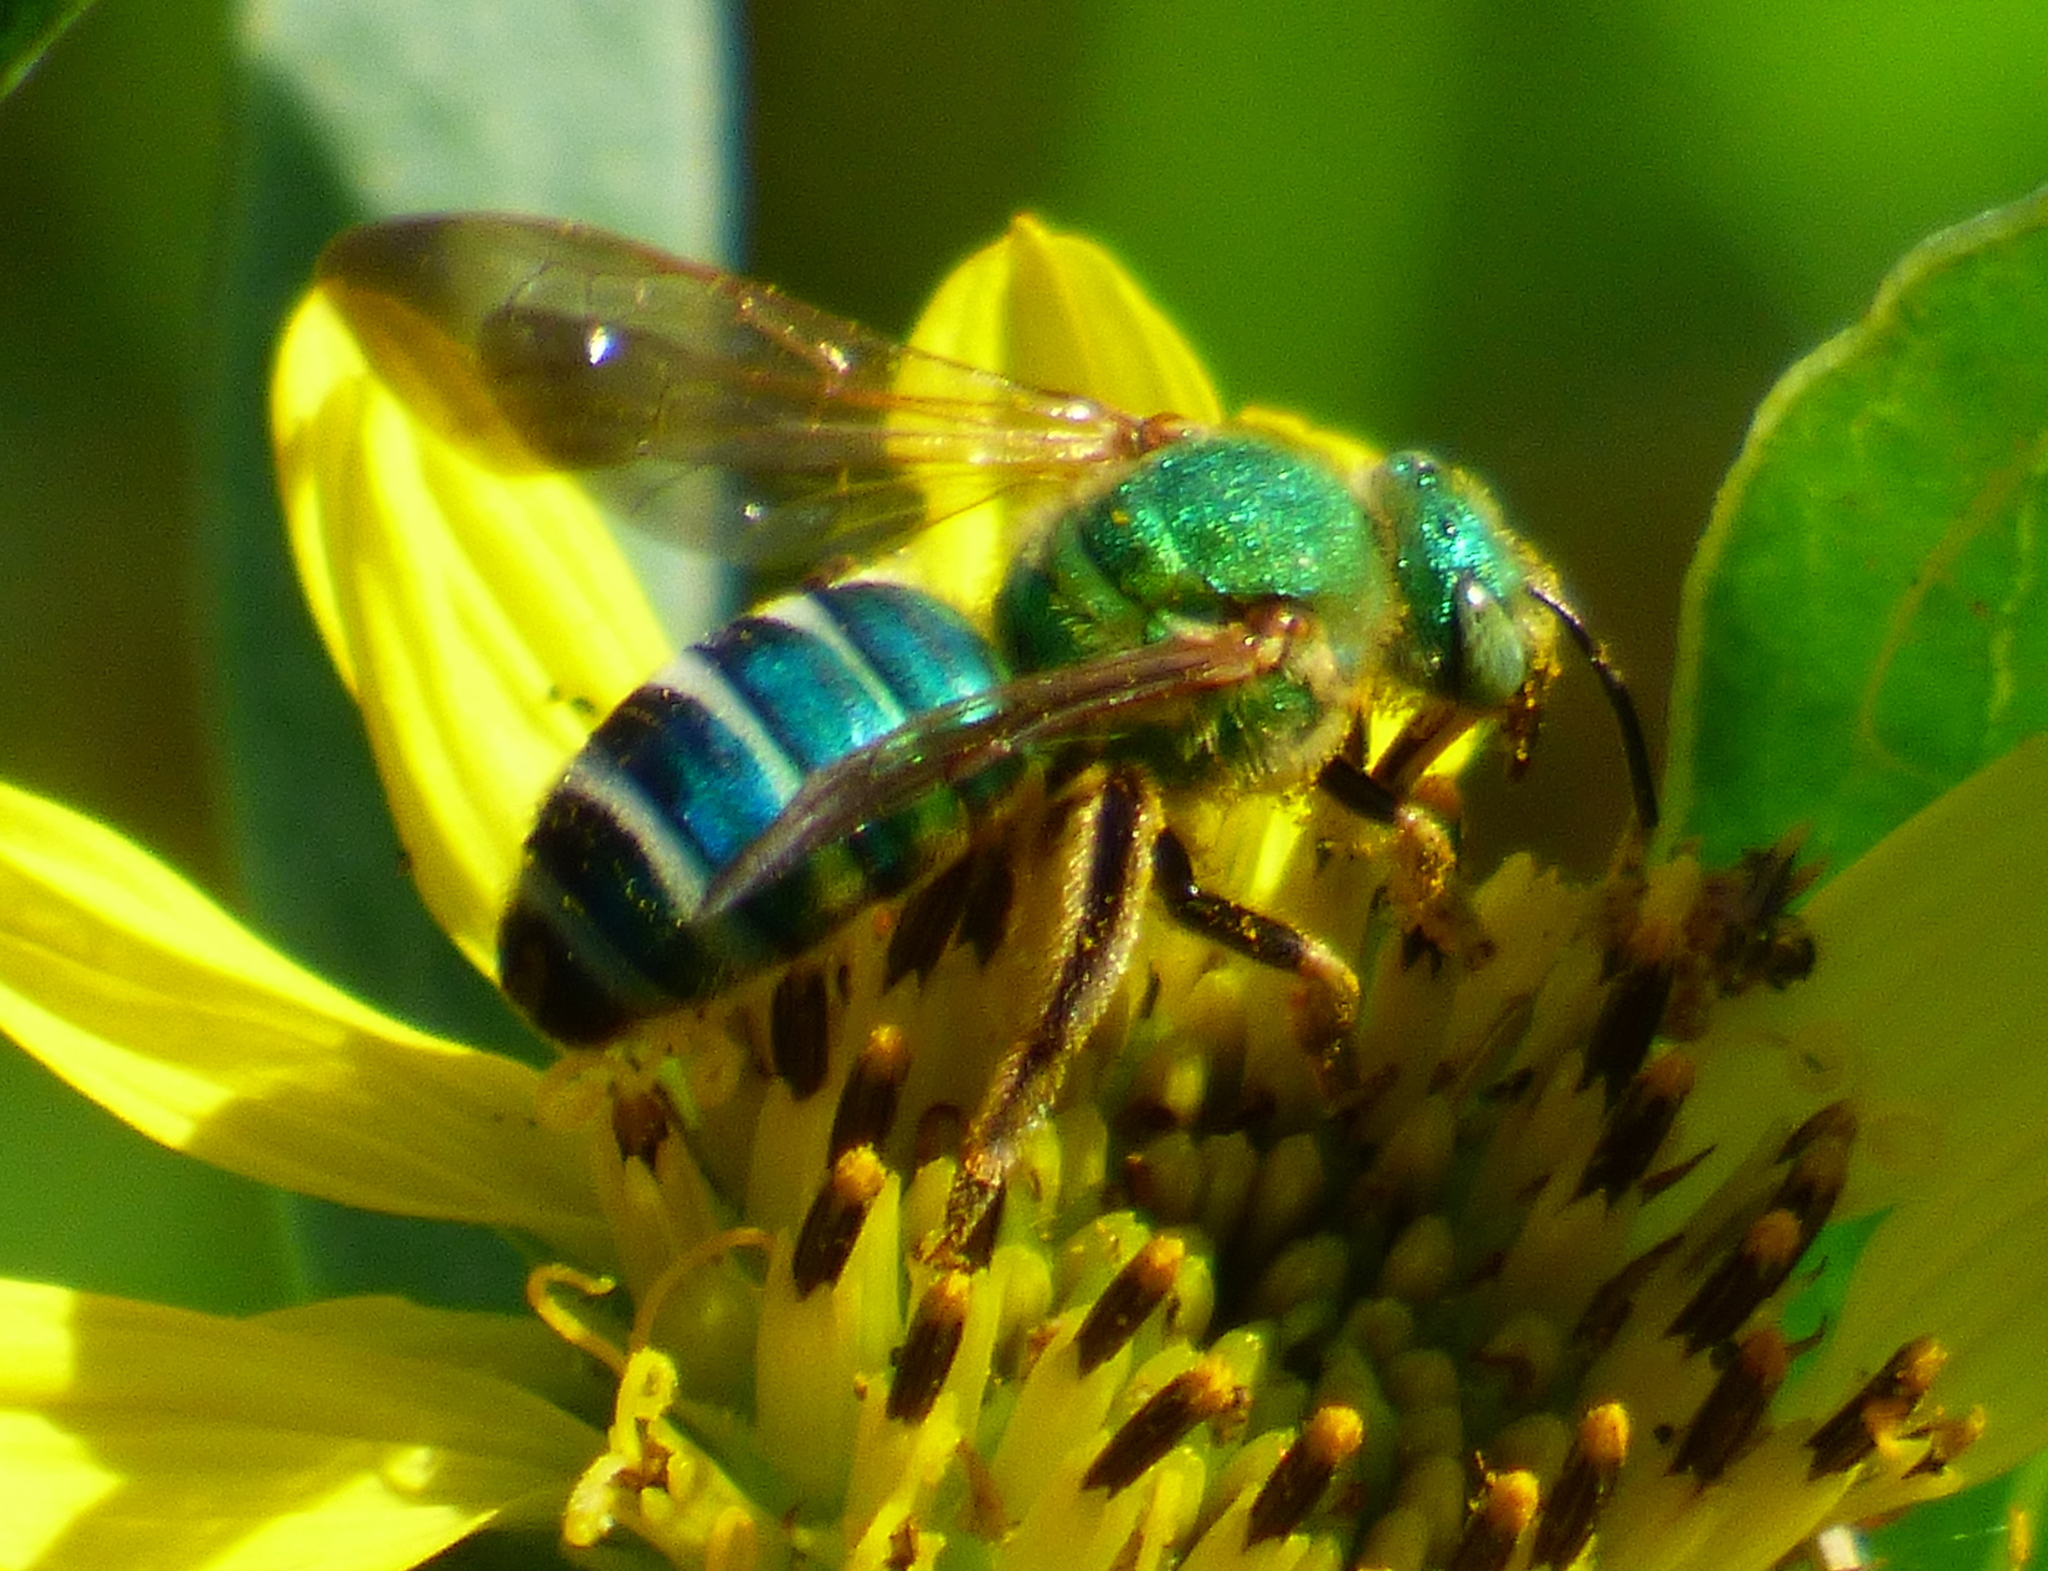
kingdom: Animalia
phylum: Arthropoda
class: Insecta
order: Hymenoptera
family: Halictidae
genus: Agapostemon
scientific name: Agapostemon splendens
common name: Brown-winged striped sweat bee
